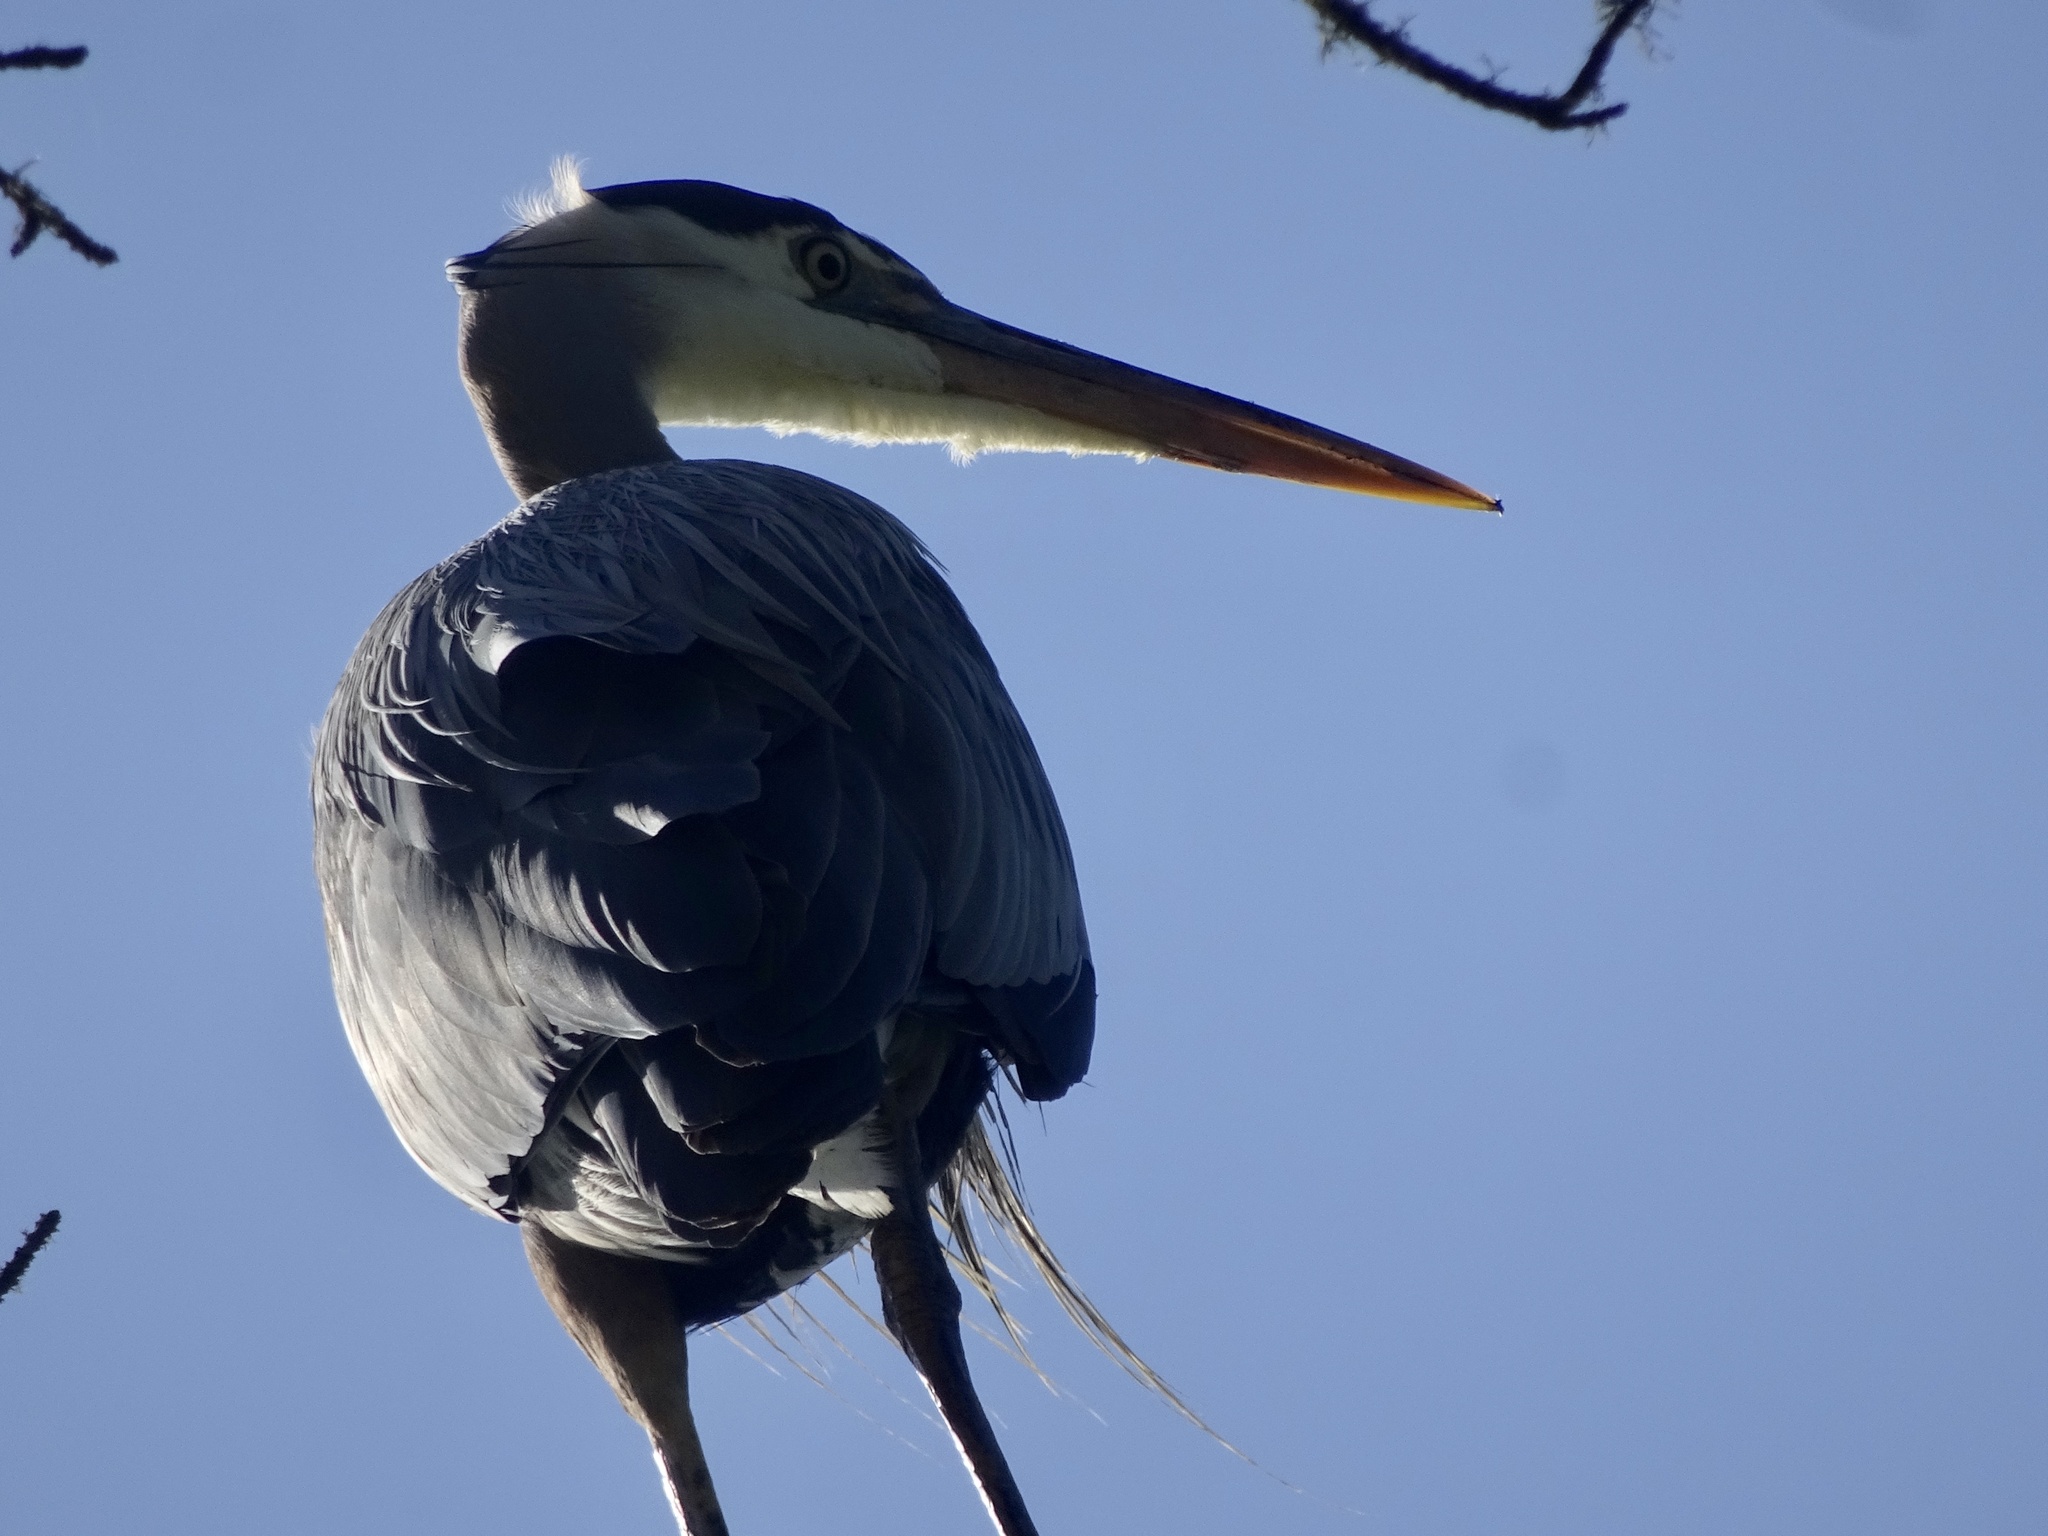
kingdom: Animalia
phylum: Chordata
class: Aves
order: Pelecaniformes
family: Ardeidae
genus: Ardea
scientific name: Ardea herodias
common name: Great blue heron
